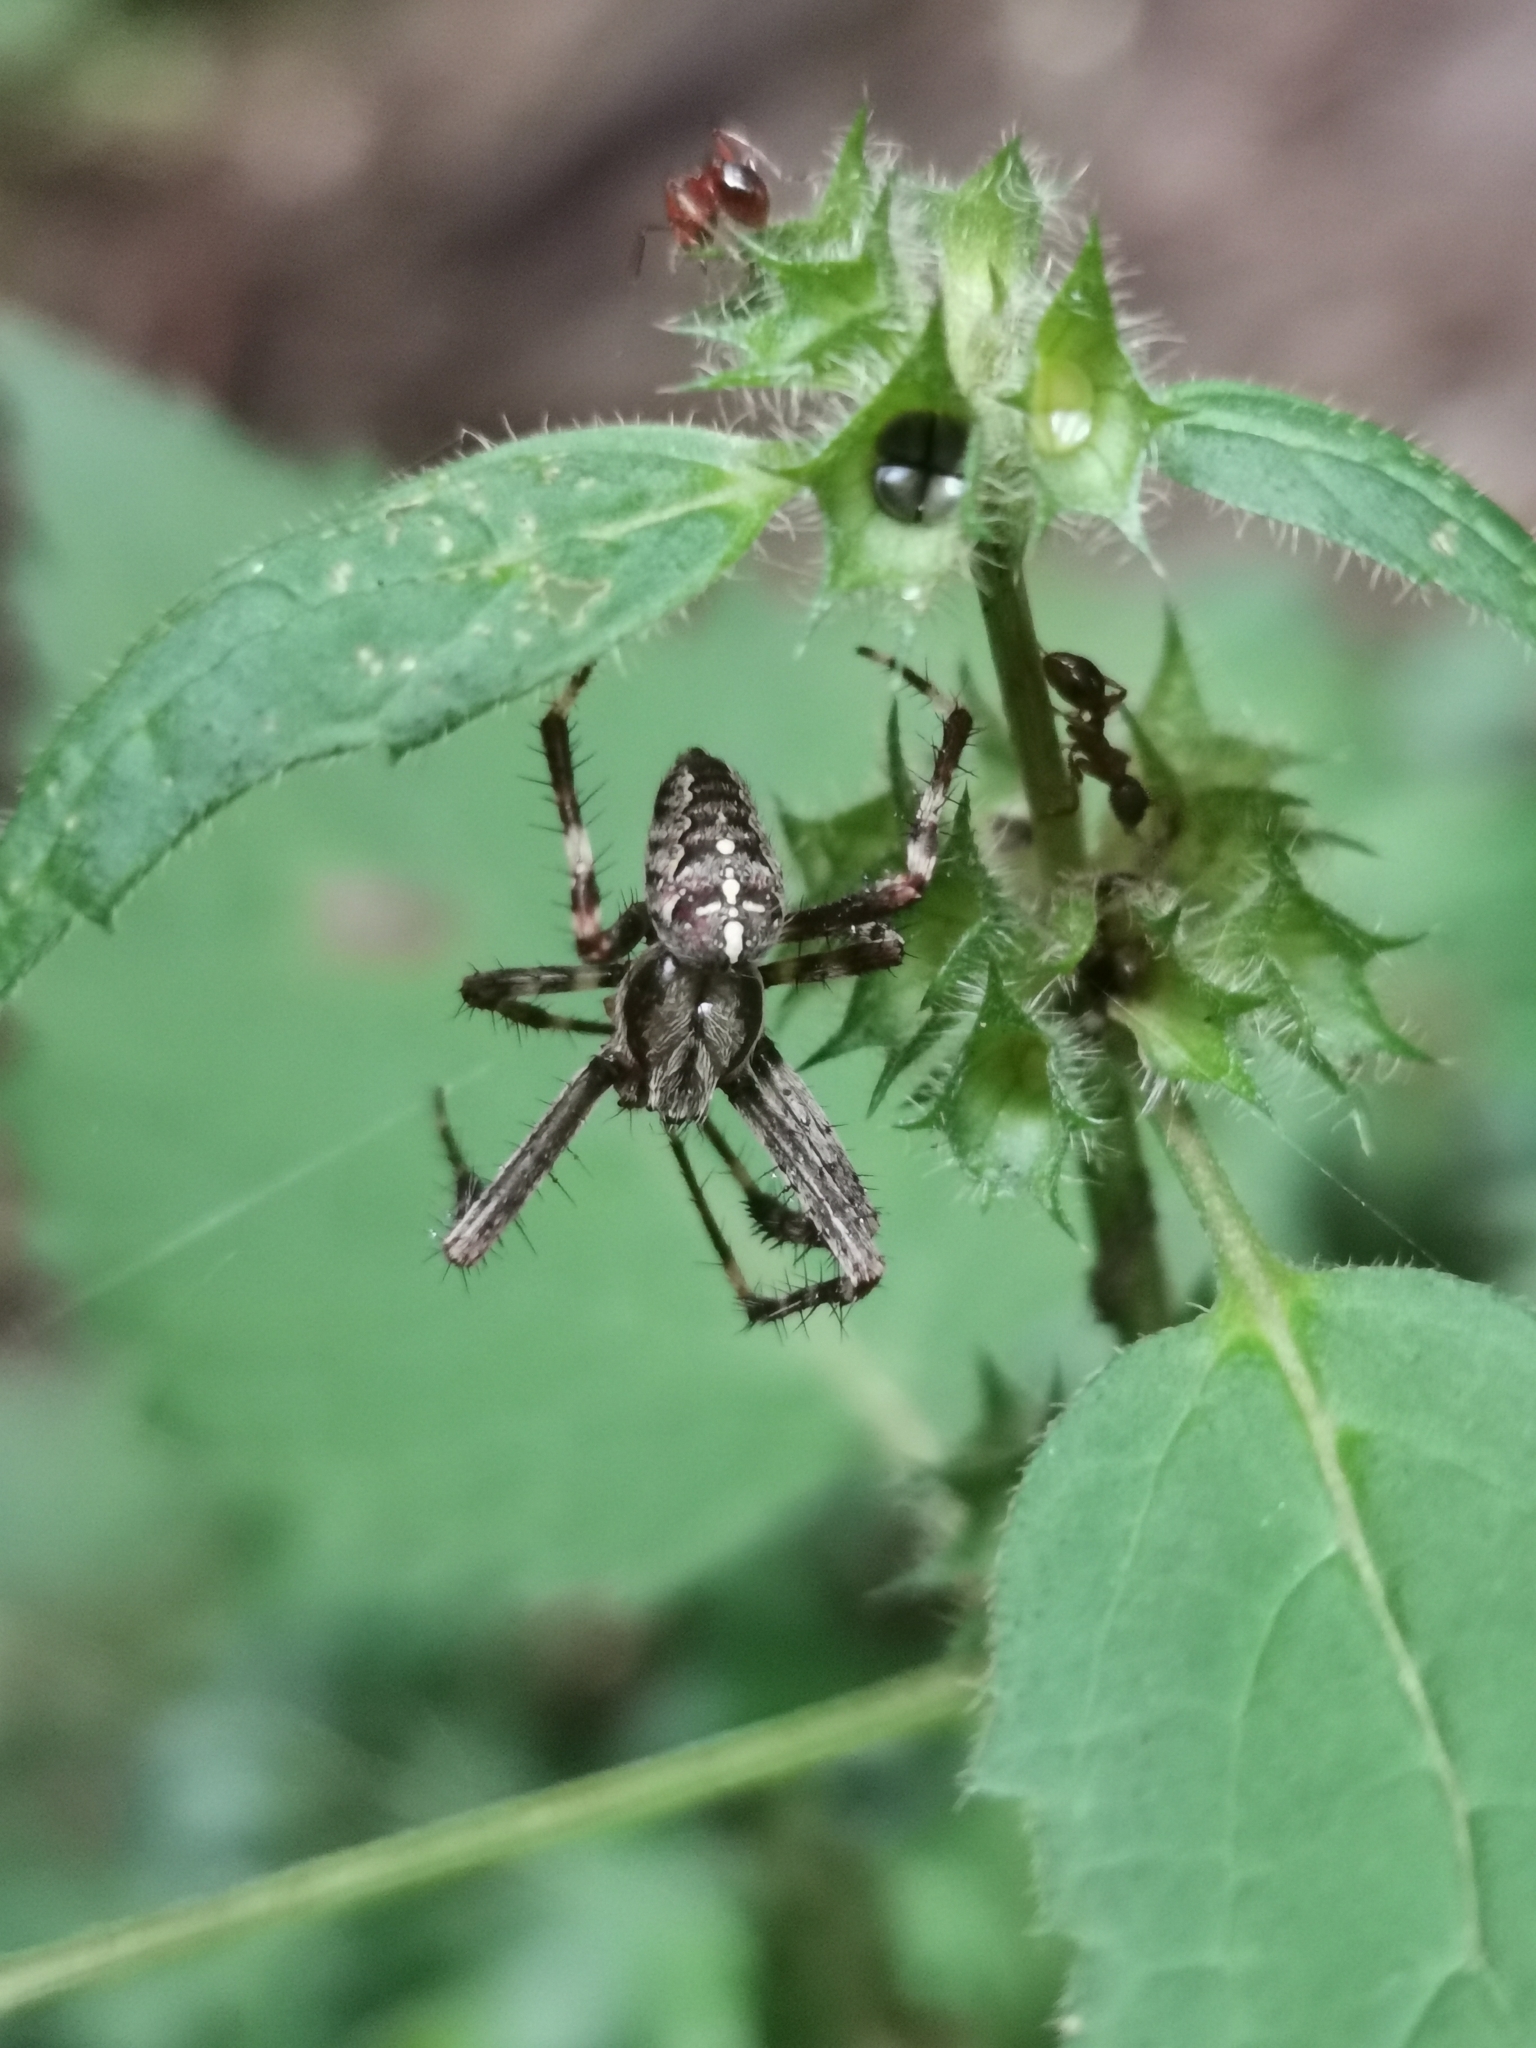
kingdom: Animalia
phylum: Arthropoda
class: Arachnida
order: Araneae
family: Araneidae
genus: Araneus
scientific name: Araneus diadematus
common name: Cross orbweaver
